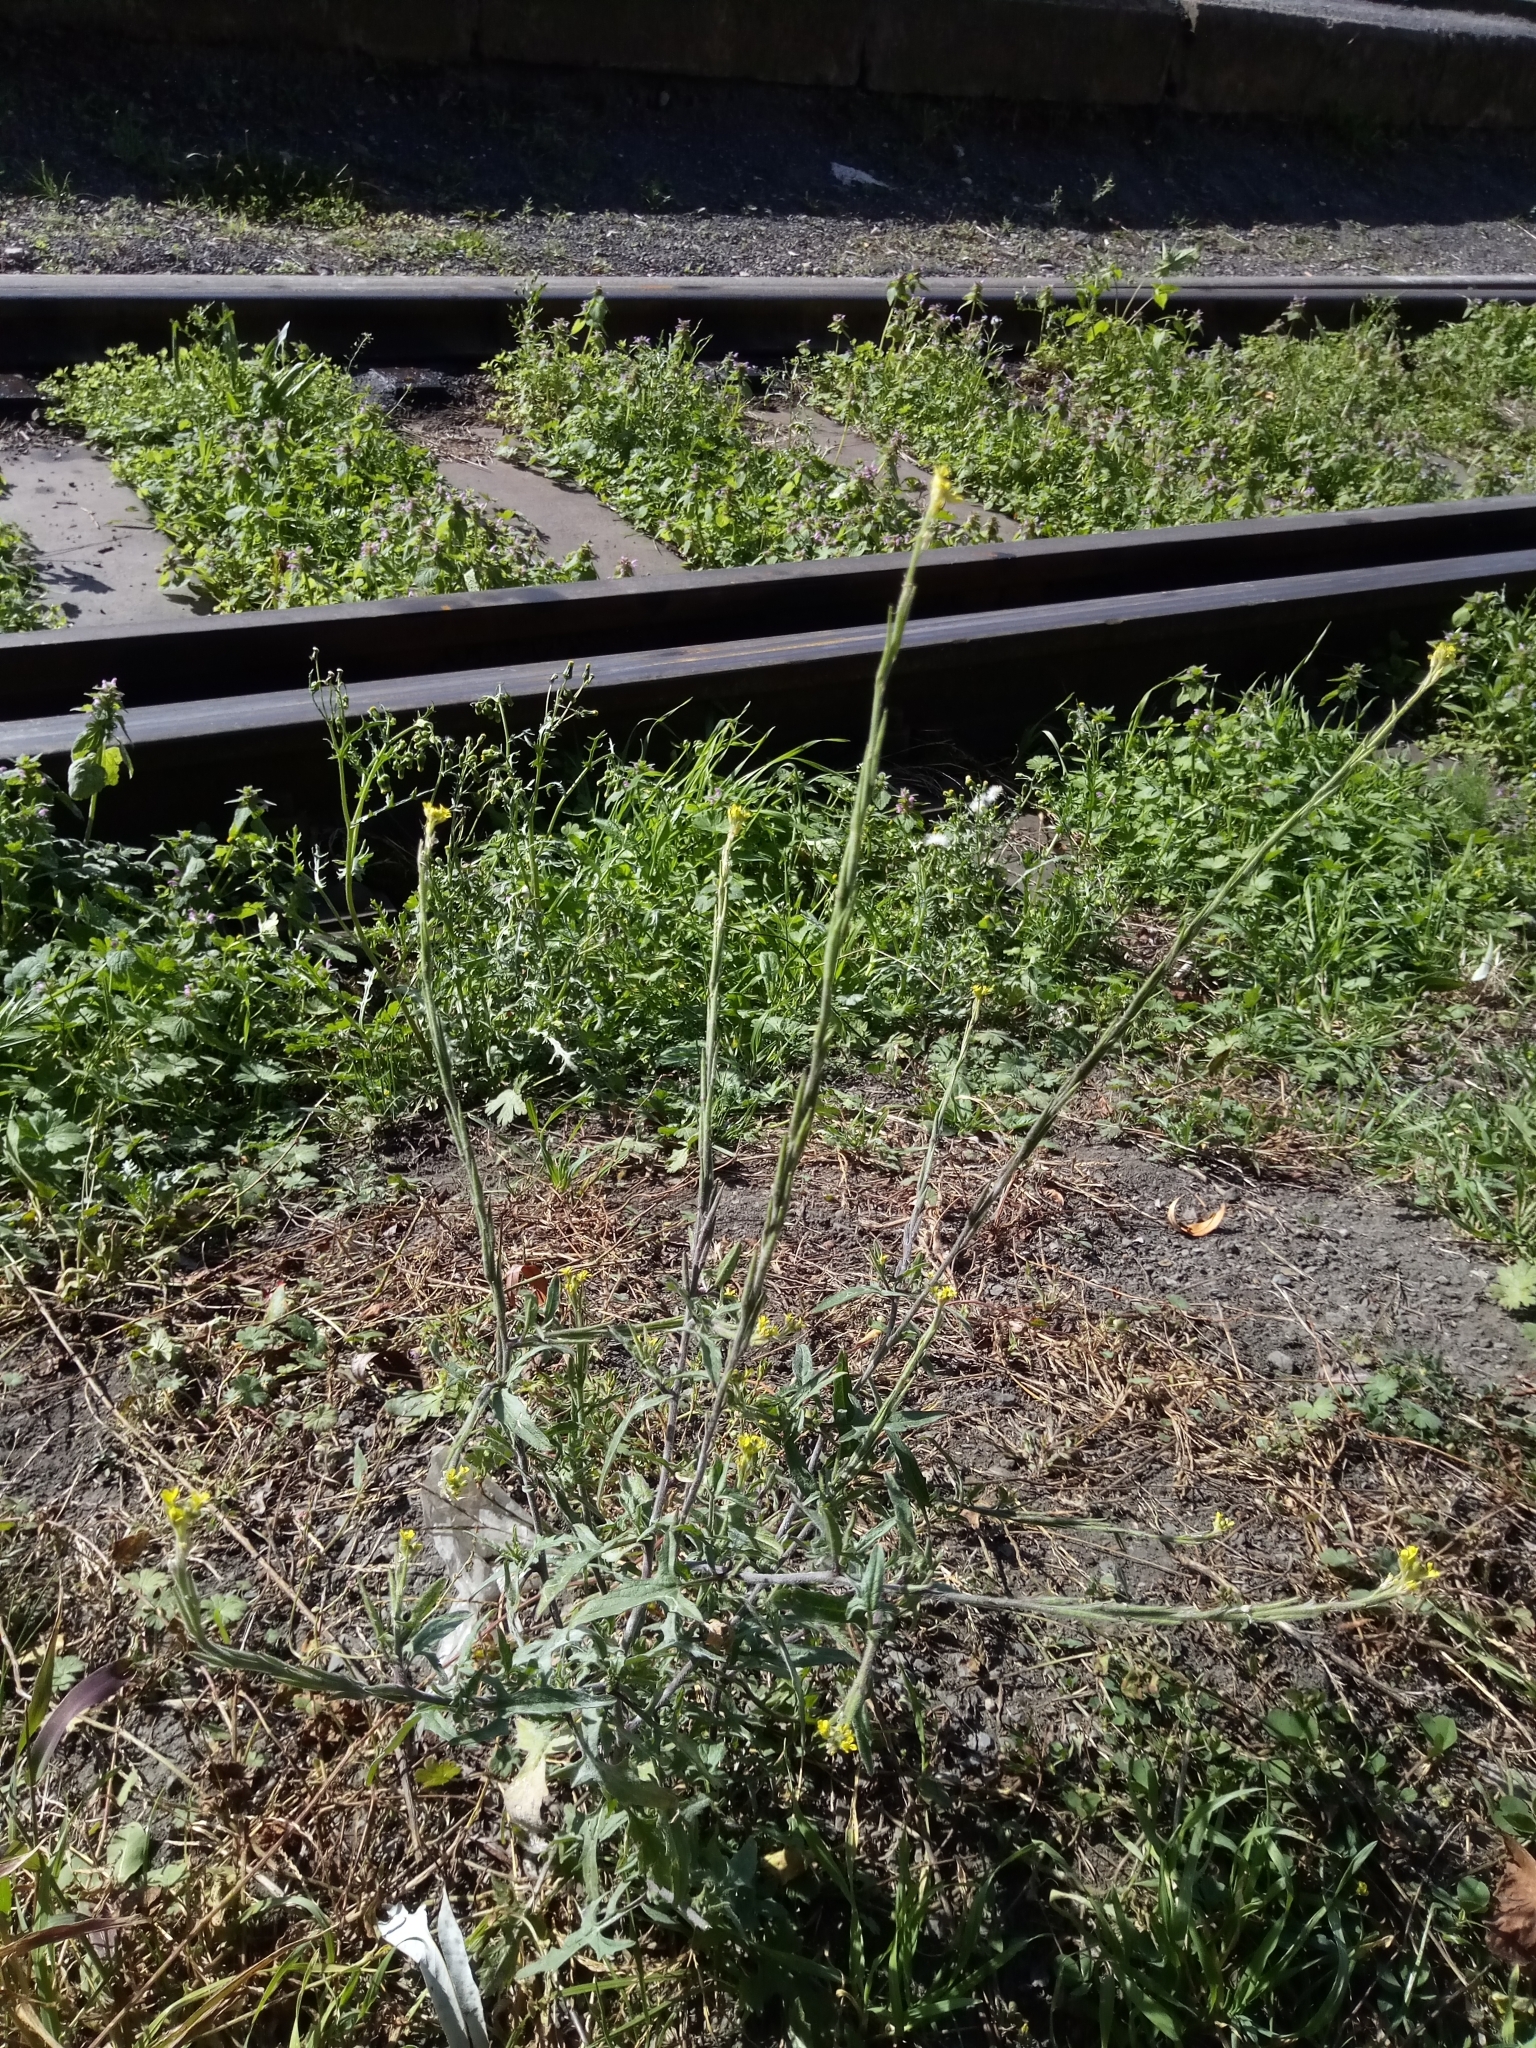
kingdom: Plantae
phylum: Tracheophyta
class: Magnoliopsida
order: Brassicales
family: Brassicaceae
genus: Sisymbrium
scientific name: Sisymbrium officinale
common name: Hedge mustard
